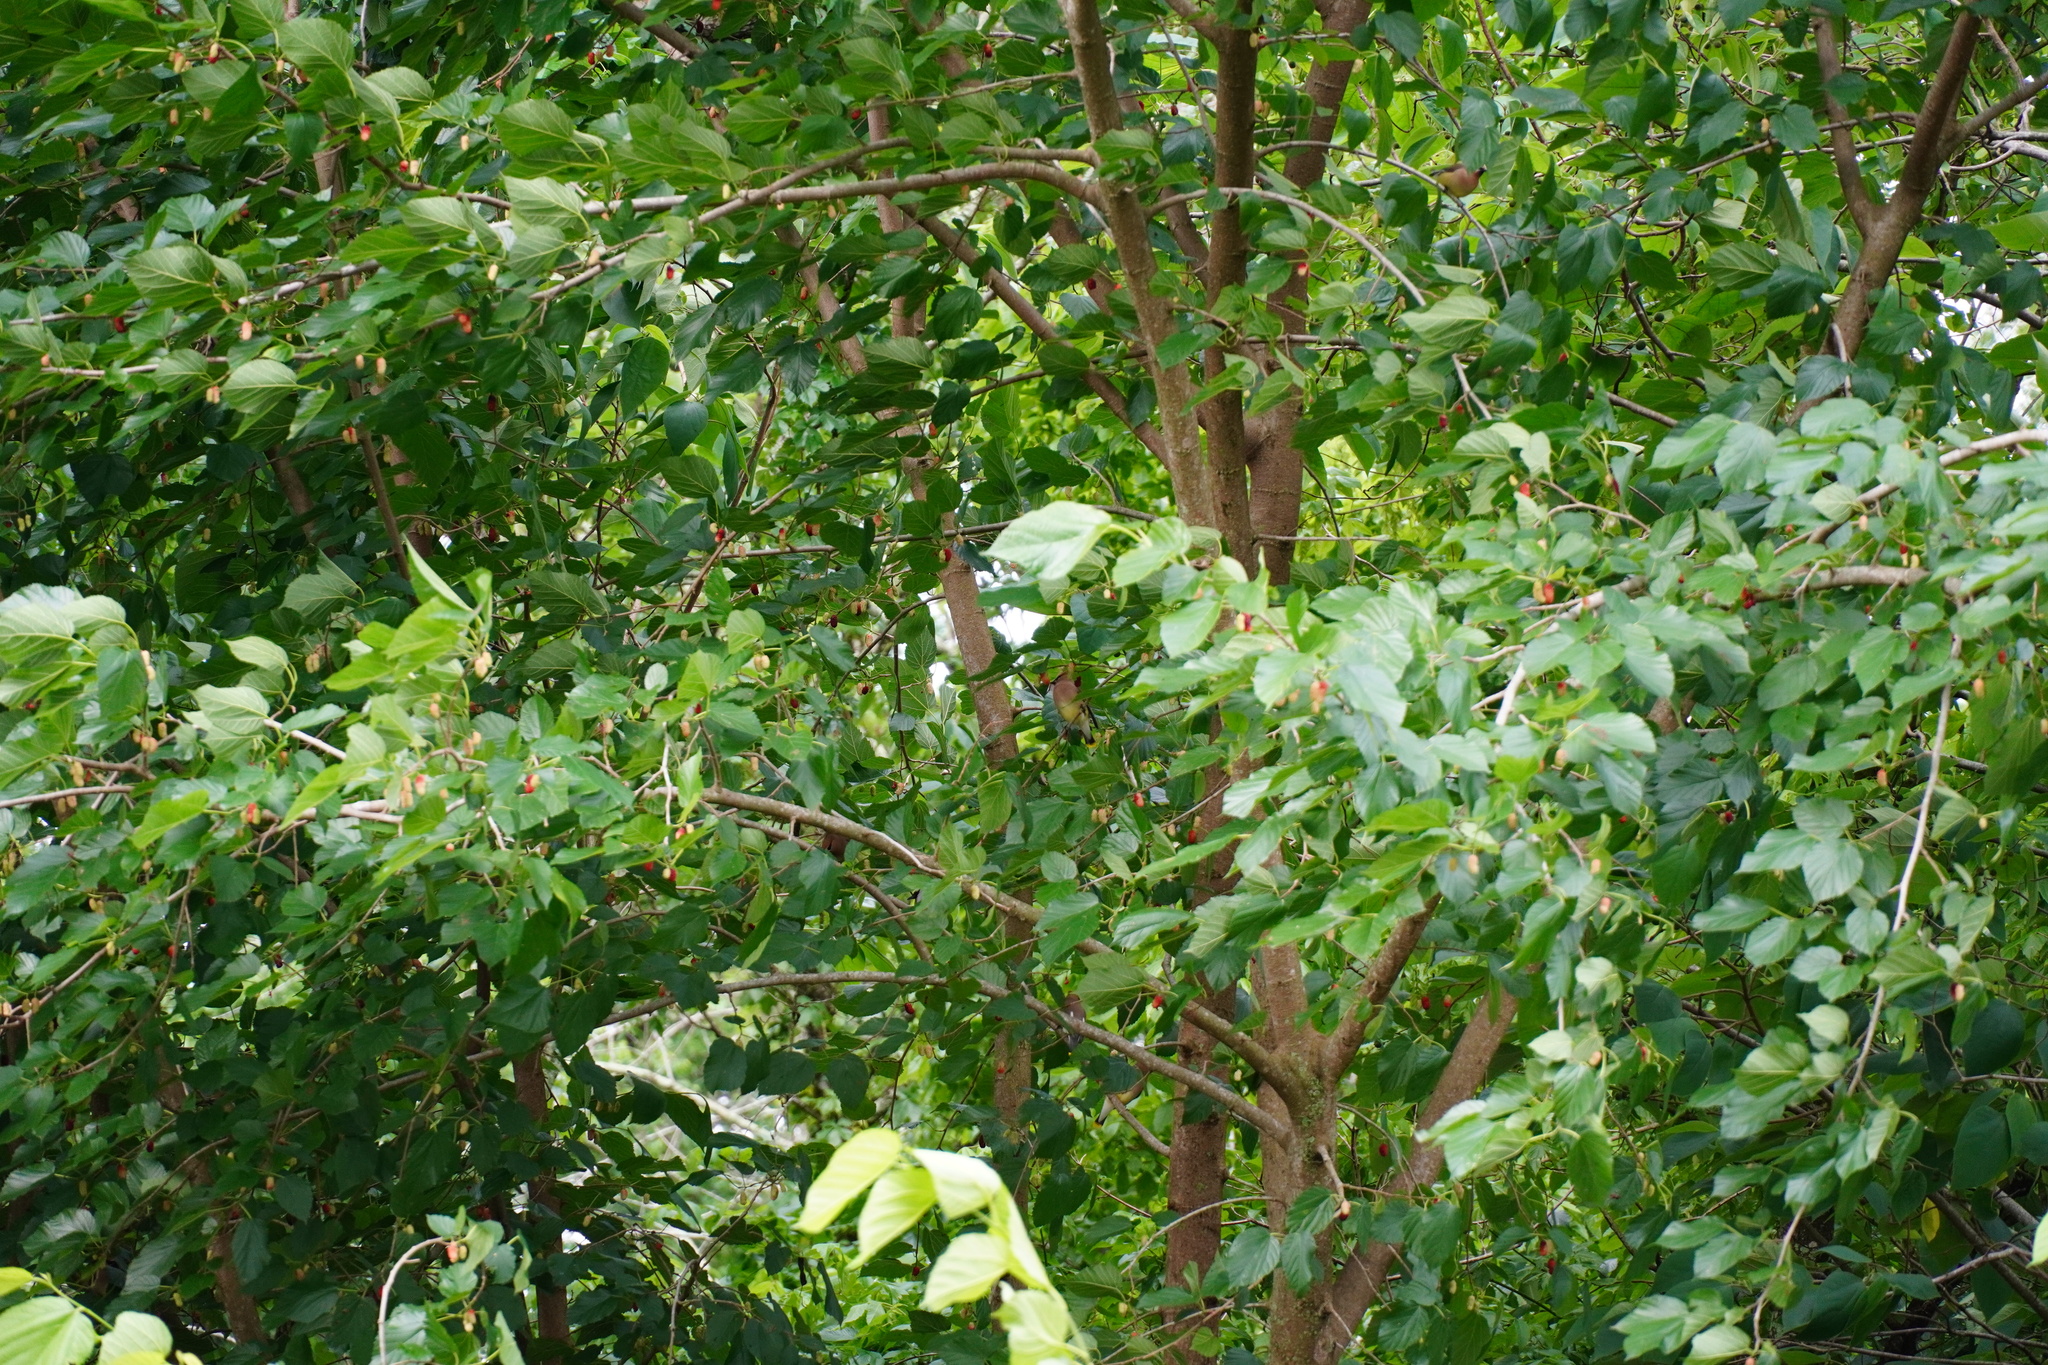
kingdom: Animalia
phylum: Chordata
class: Aves
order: Passeriformes
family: Bombycillidae
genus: Bombycilla
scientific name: Bombycilla cedrorum
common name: Cedar waxwing
